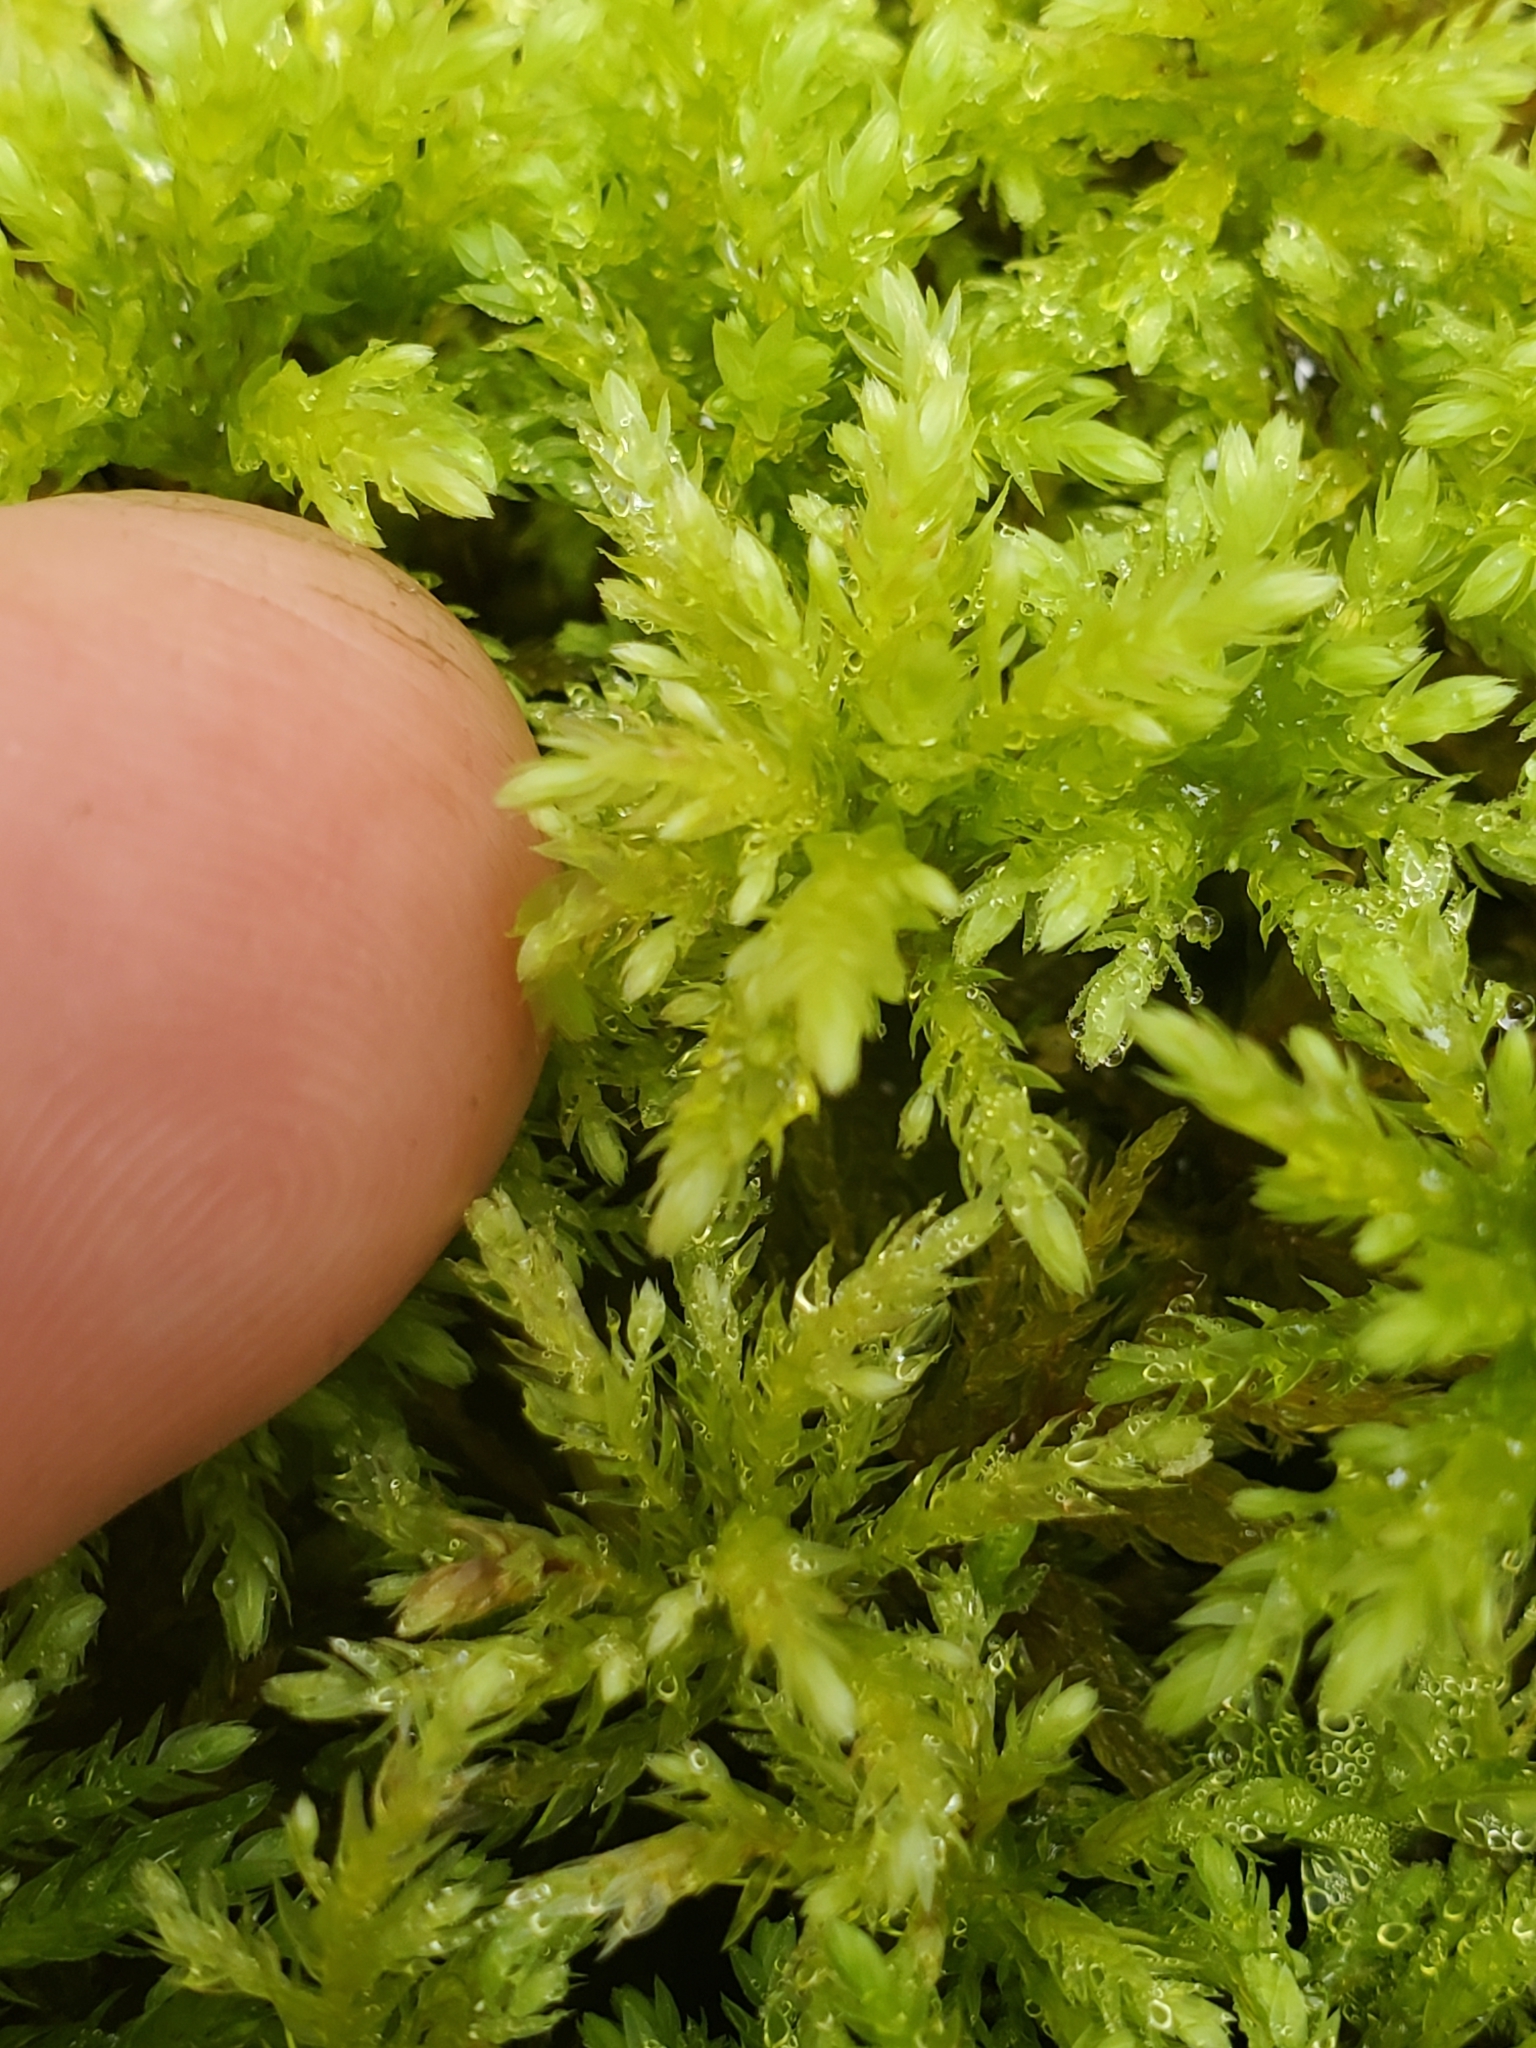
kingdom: Plantae
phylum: Bryophyta
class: Bryopsida
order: Bryales
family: Mniaceae
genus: Leucolepis
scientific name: Leucolepis acanthoneura
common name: Leucolepis umbrella moss
